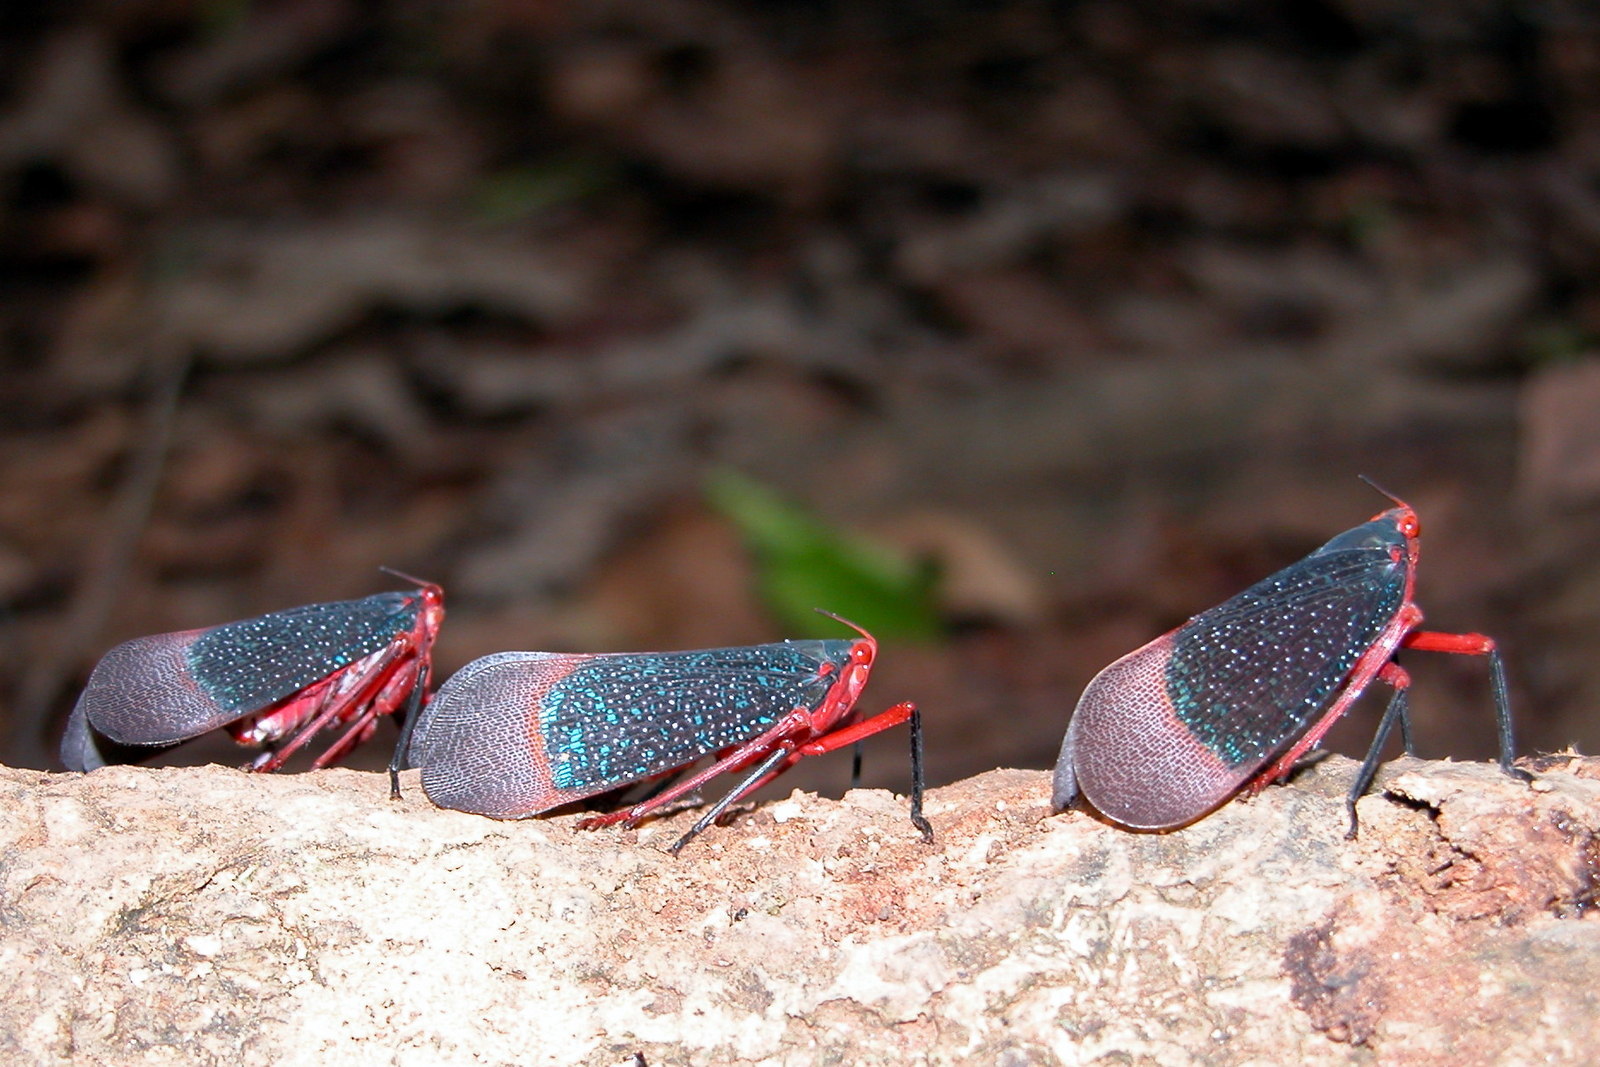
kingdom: Animalia
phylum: Arthropoda
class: Insecta
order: Hemiptera
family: Fulgoridae
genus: Kalidasa
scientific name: Kalidasa lanata
